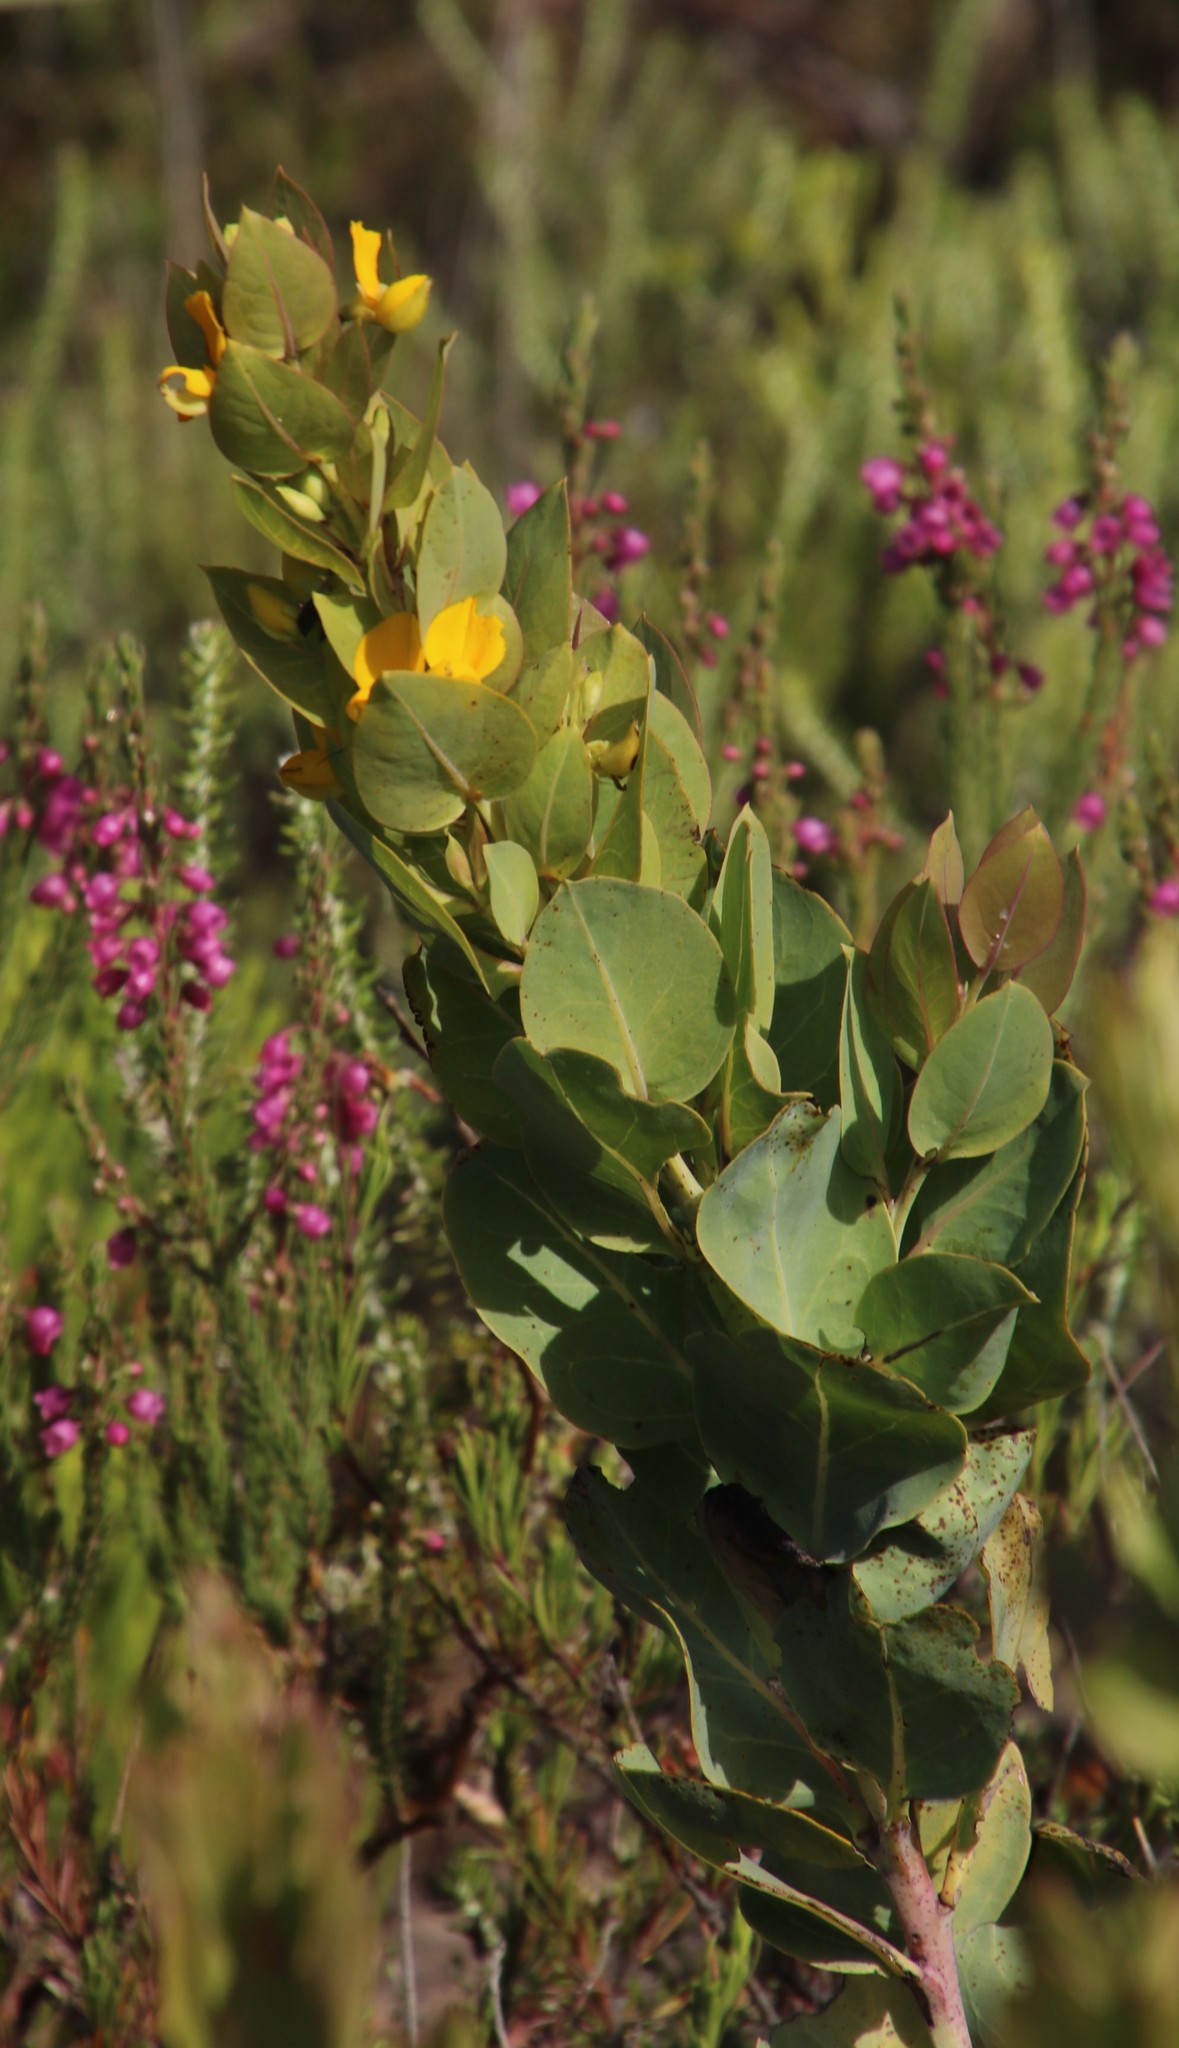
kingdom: Plantae
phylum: Tracheophyta
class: Magnoliopsida
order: Fabales
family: Fabaceae
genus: Rafnia
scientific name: Rafnia triflora
